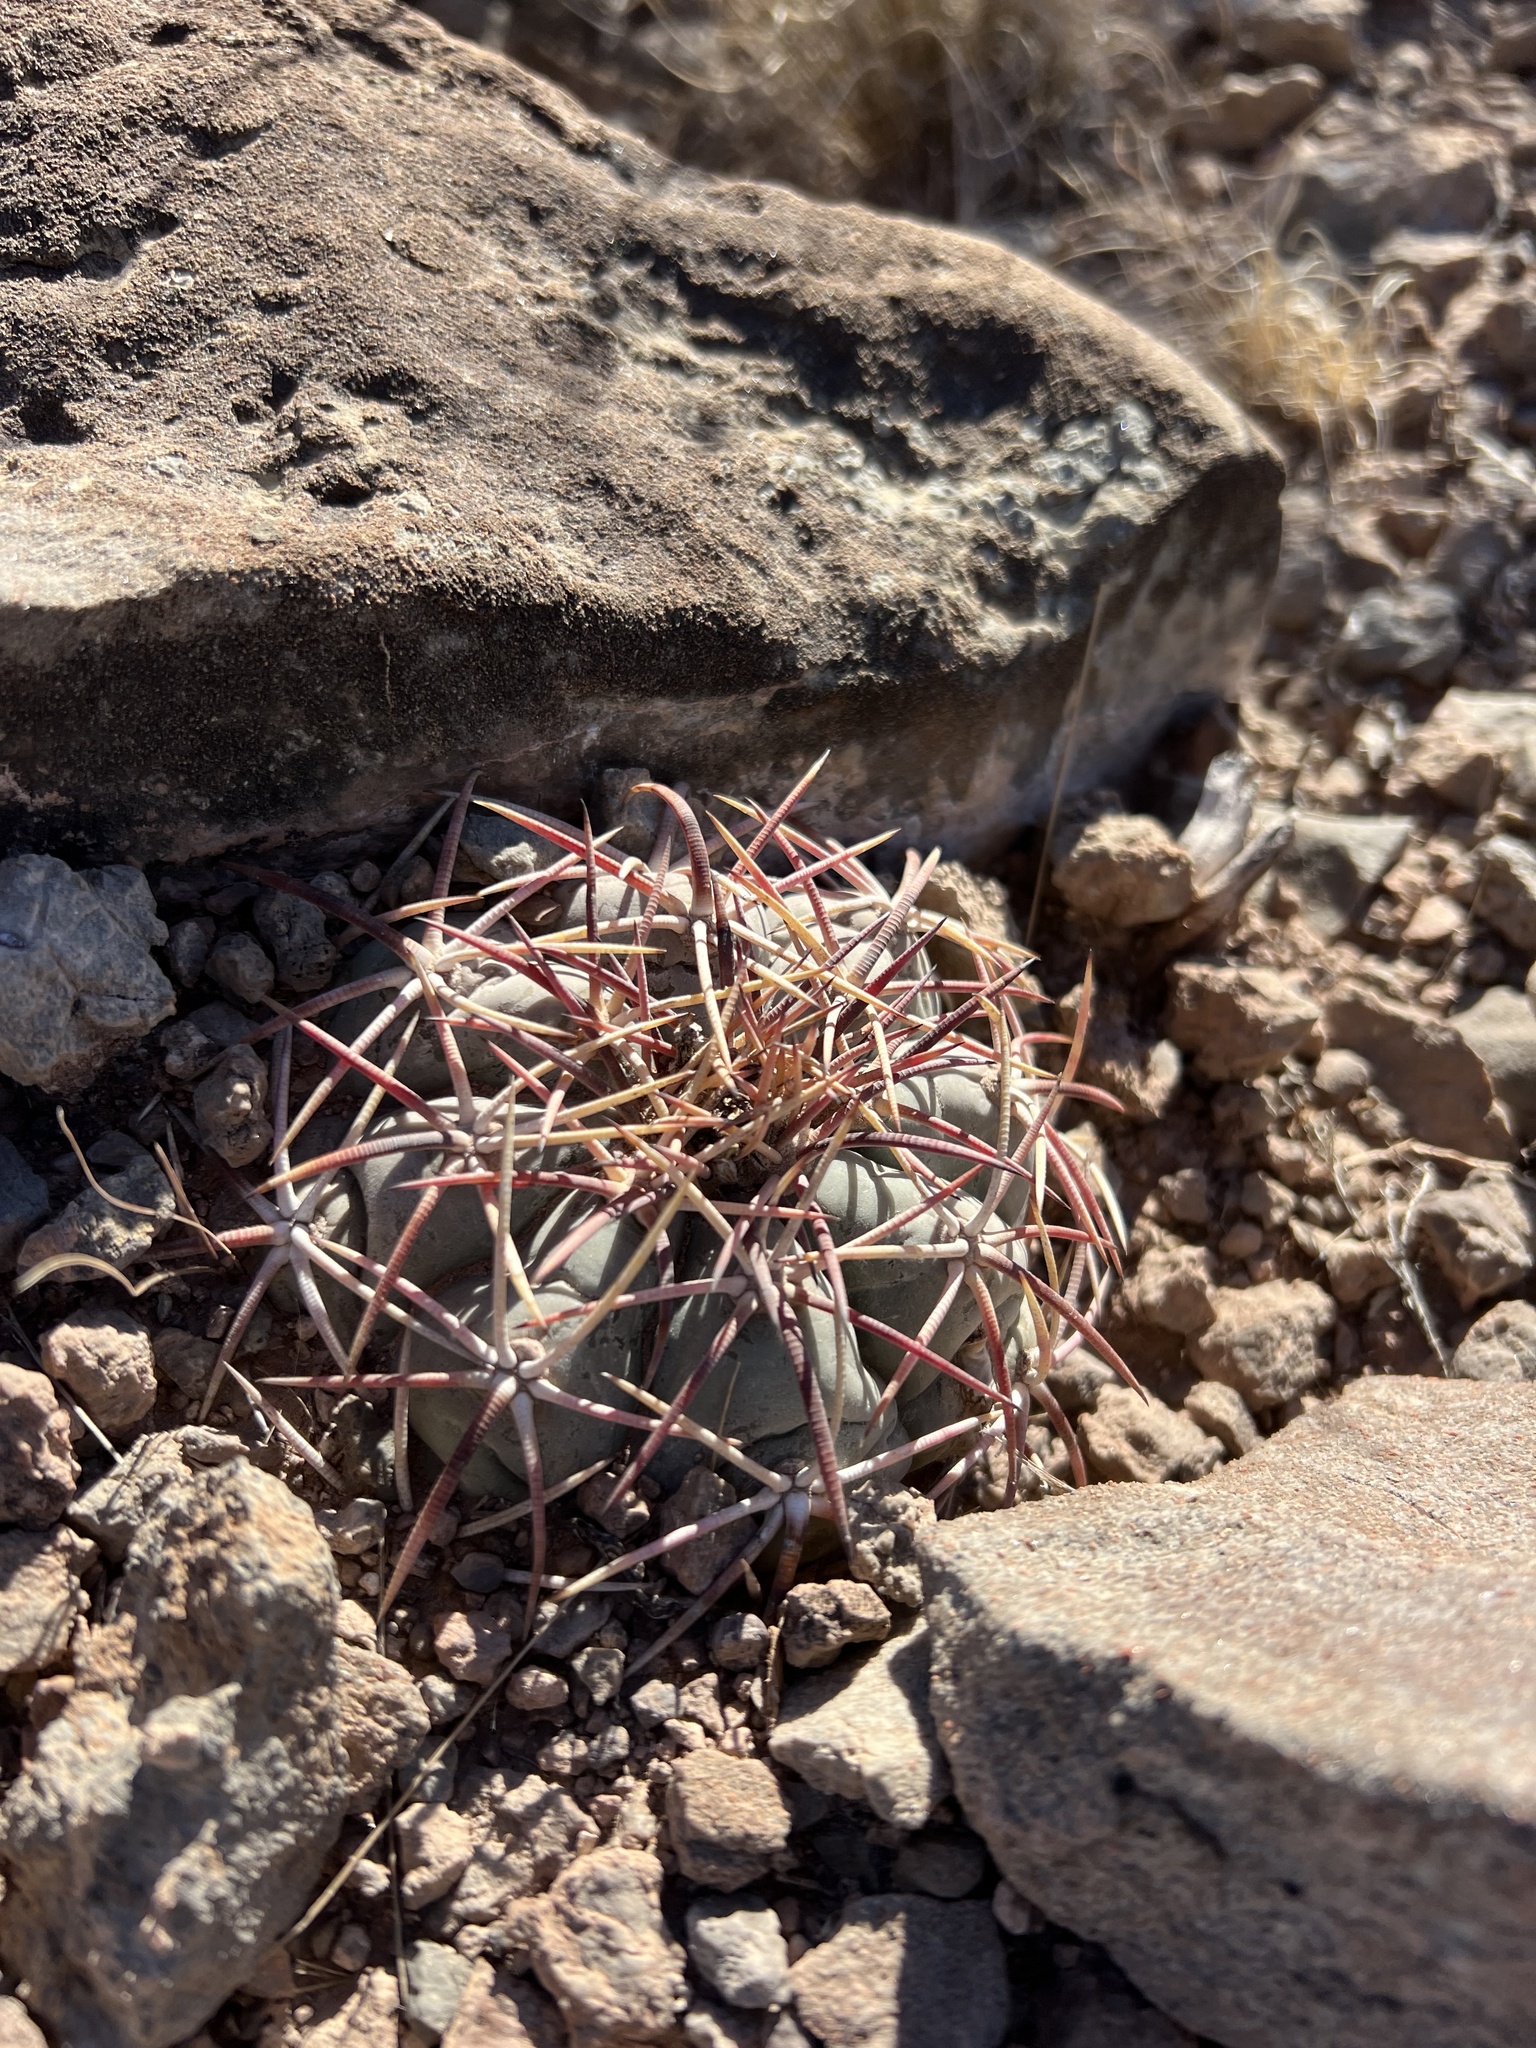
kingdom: Plantae
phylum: Tracheophyta
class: Magnoliopsida
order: Caryophyllales
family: Cactaceae
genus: Echinocactus
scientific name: Echinocactus horizonthalonius
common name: Devilshead
